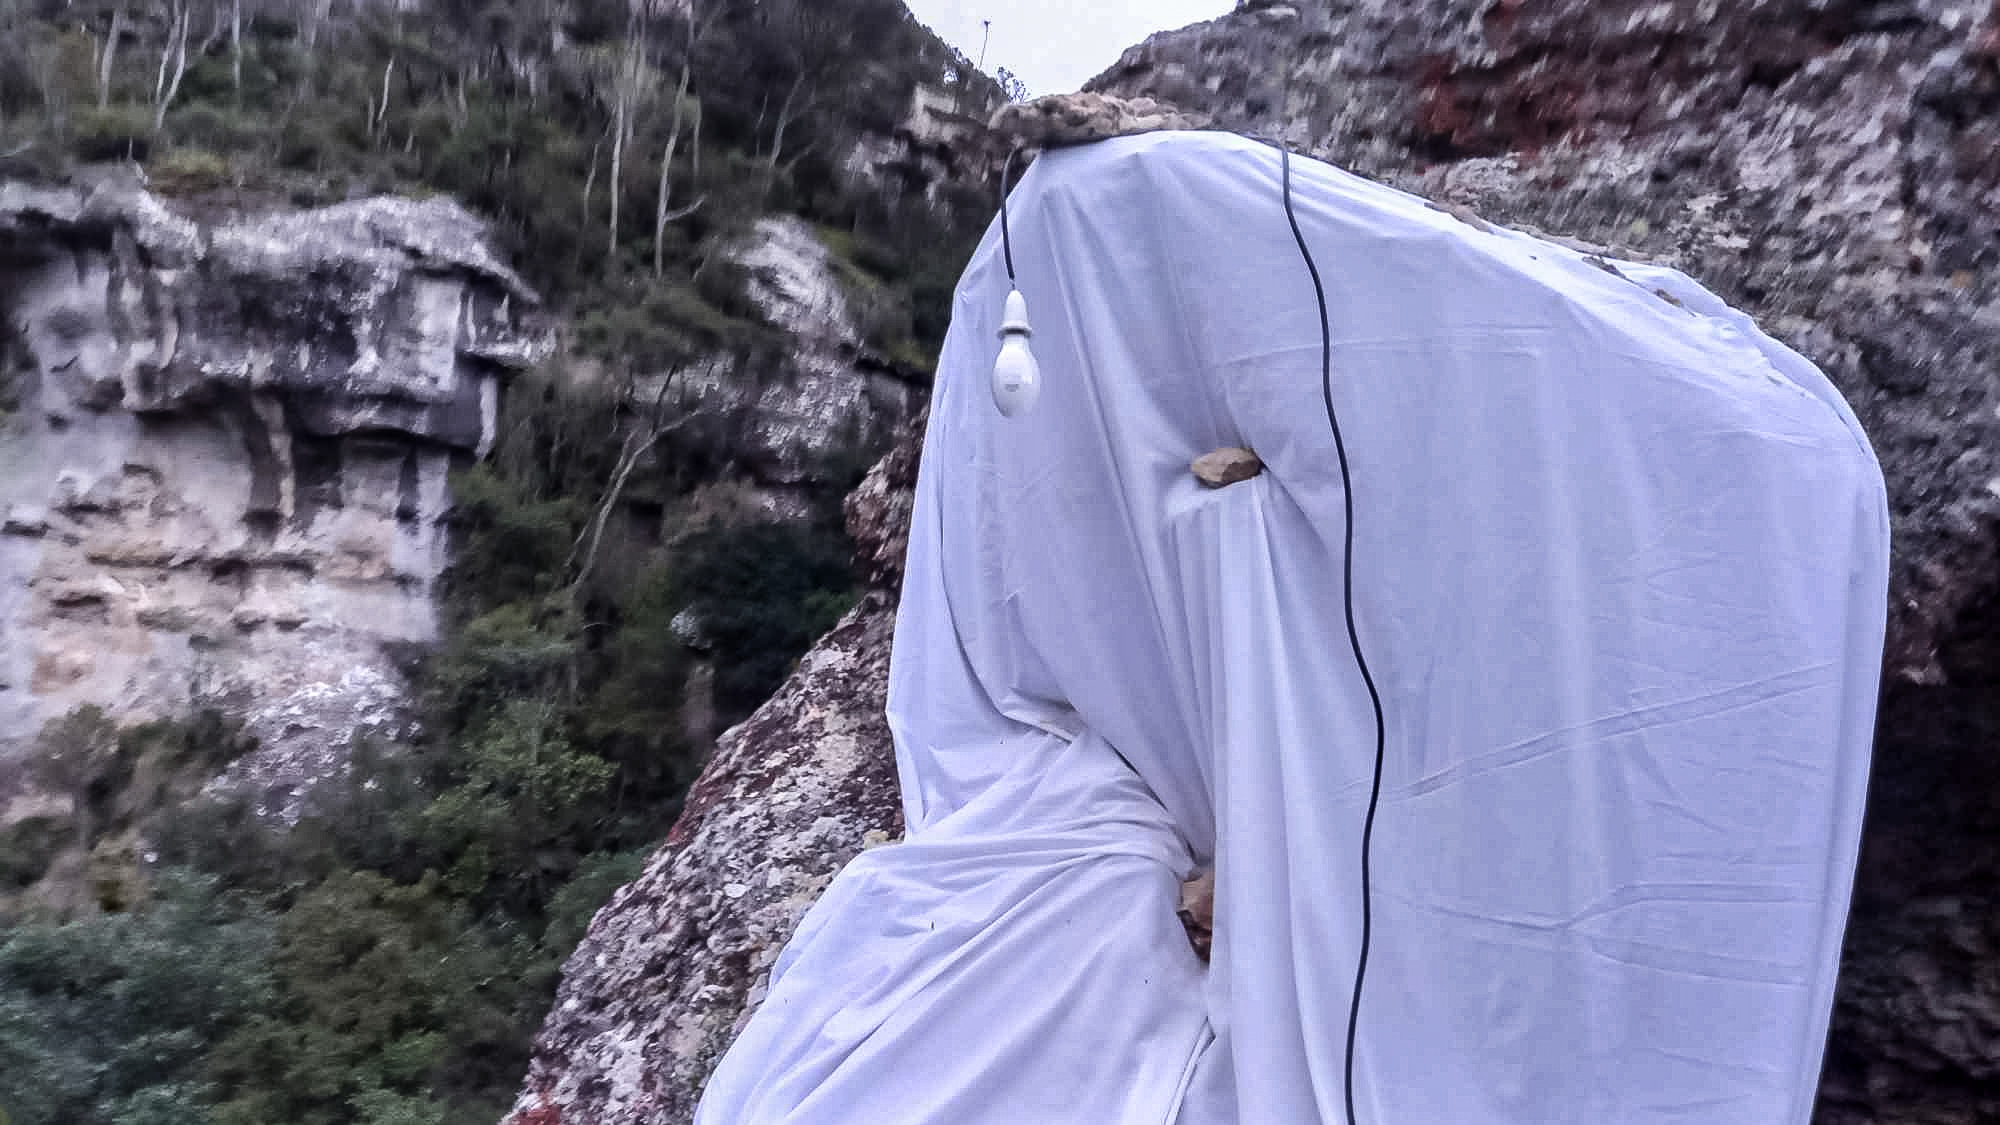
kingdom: Animalia
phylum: Arthropoda
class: Insecta
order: Lepidoptera
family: Noctuidae
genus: Meterana
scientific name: Meterana octans
